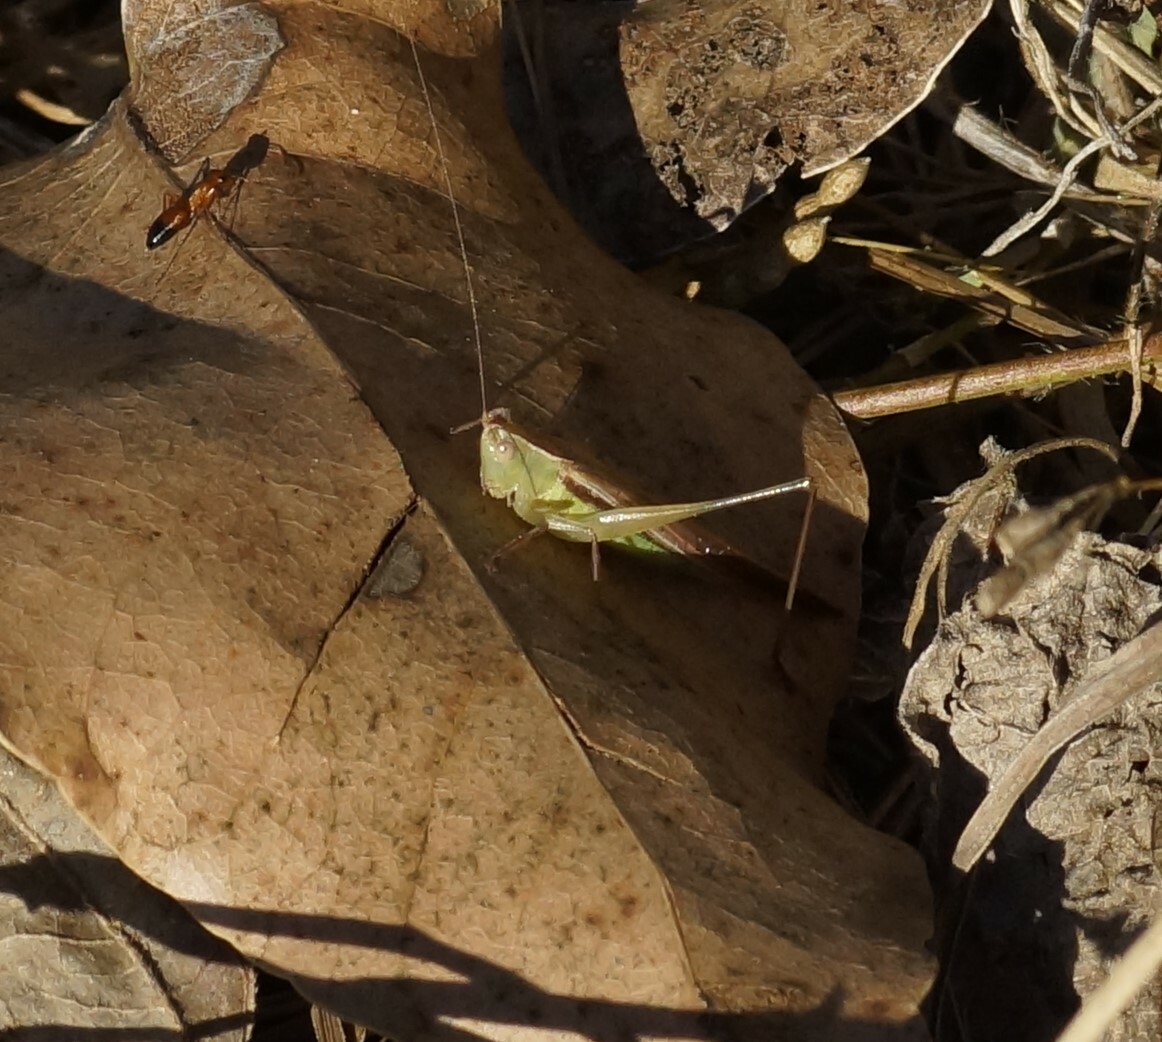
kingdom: Animalia
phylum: Arthropoda
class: Insecta
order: Orthoptera
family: Tettigoniidae
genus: Conocephalus
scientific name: Conocephalus upoluensis
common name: Upolu meadow katydid
